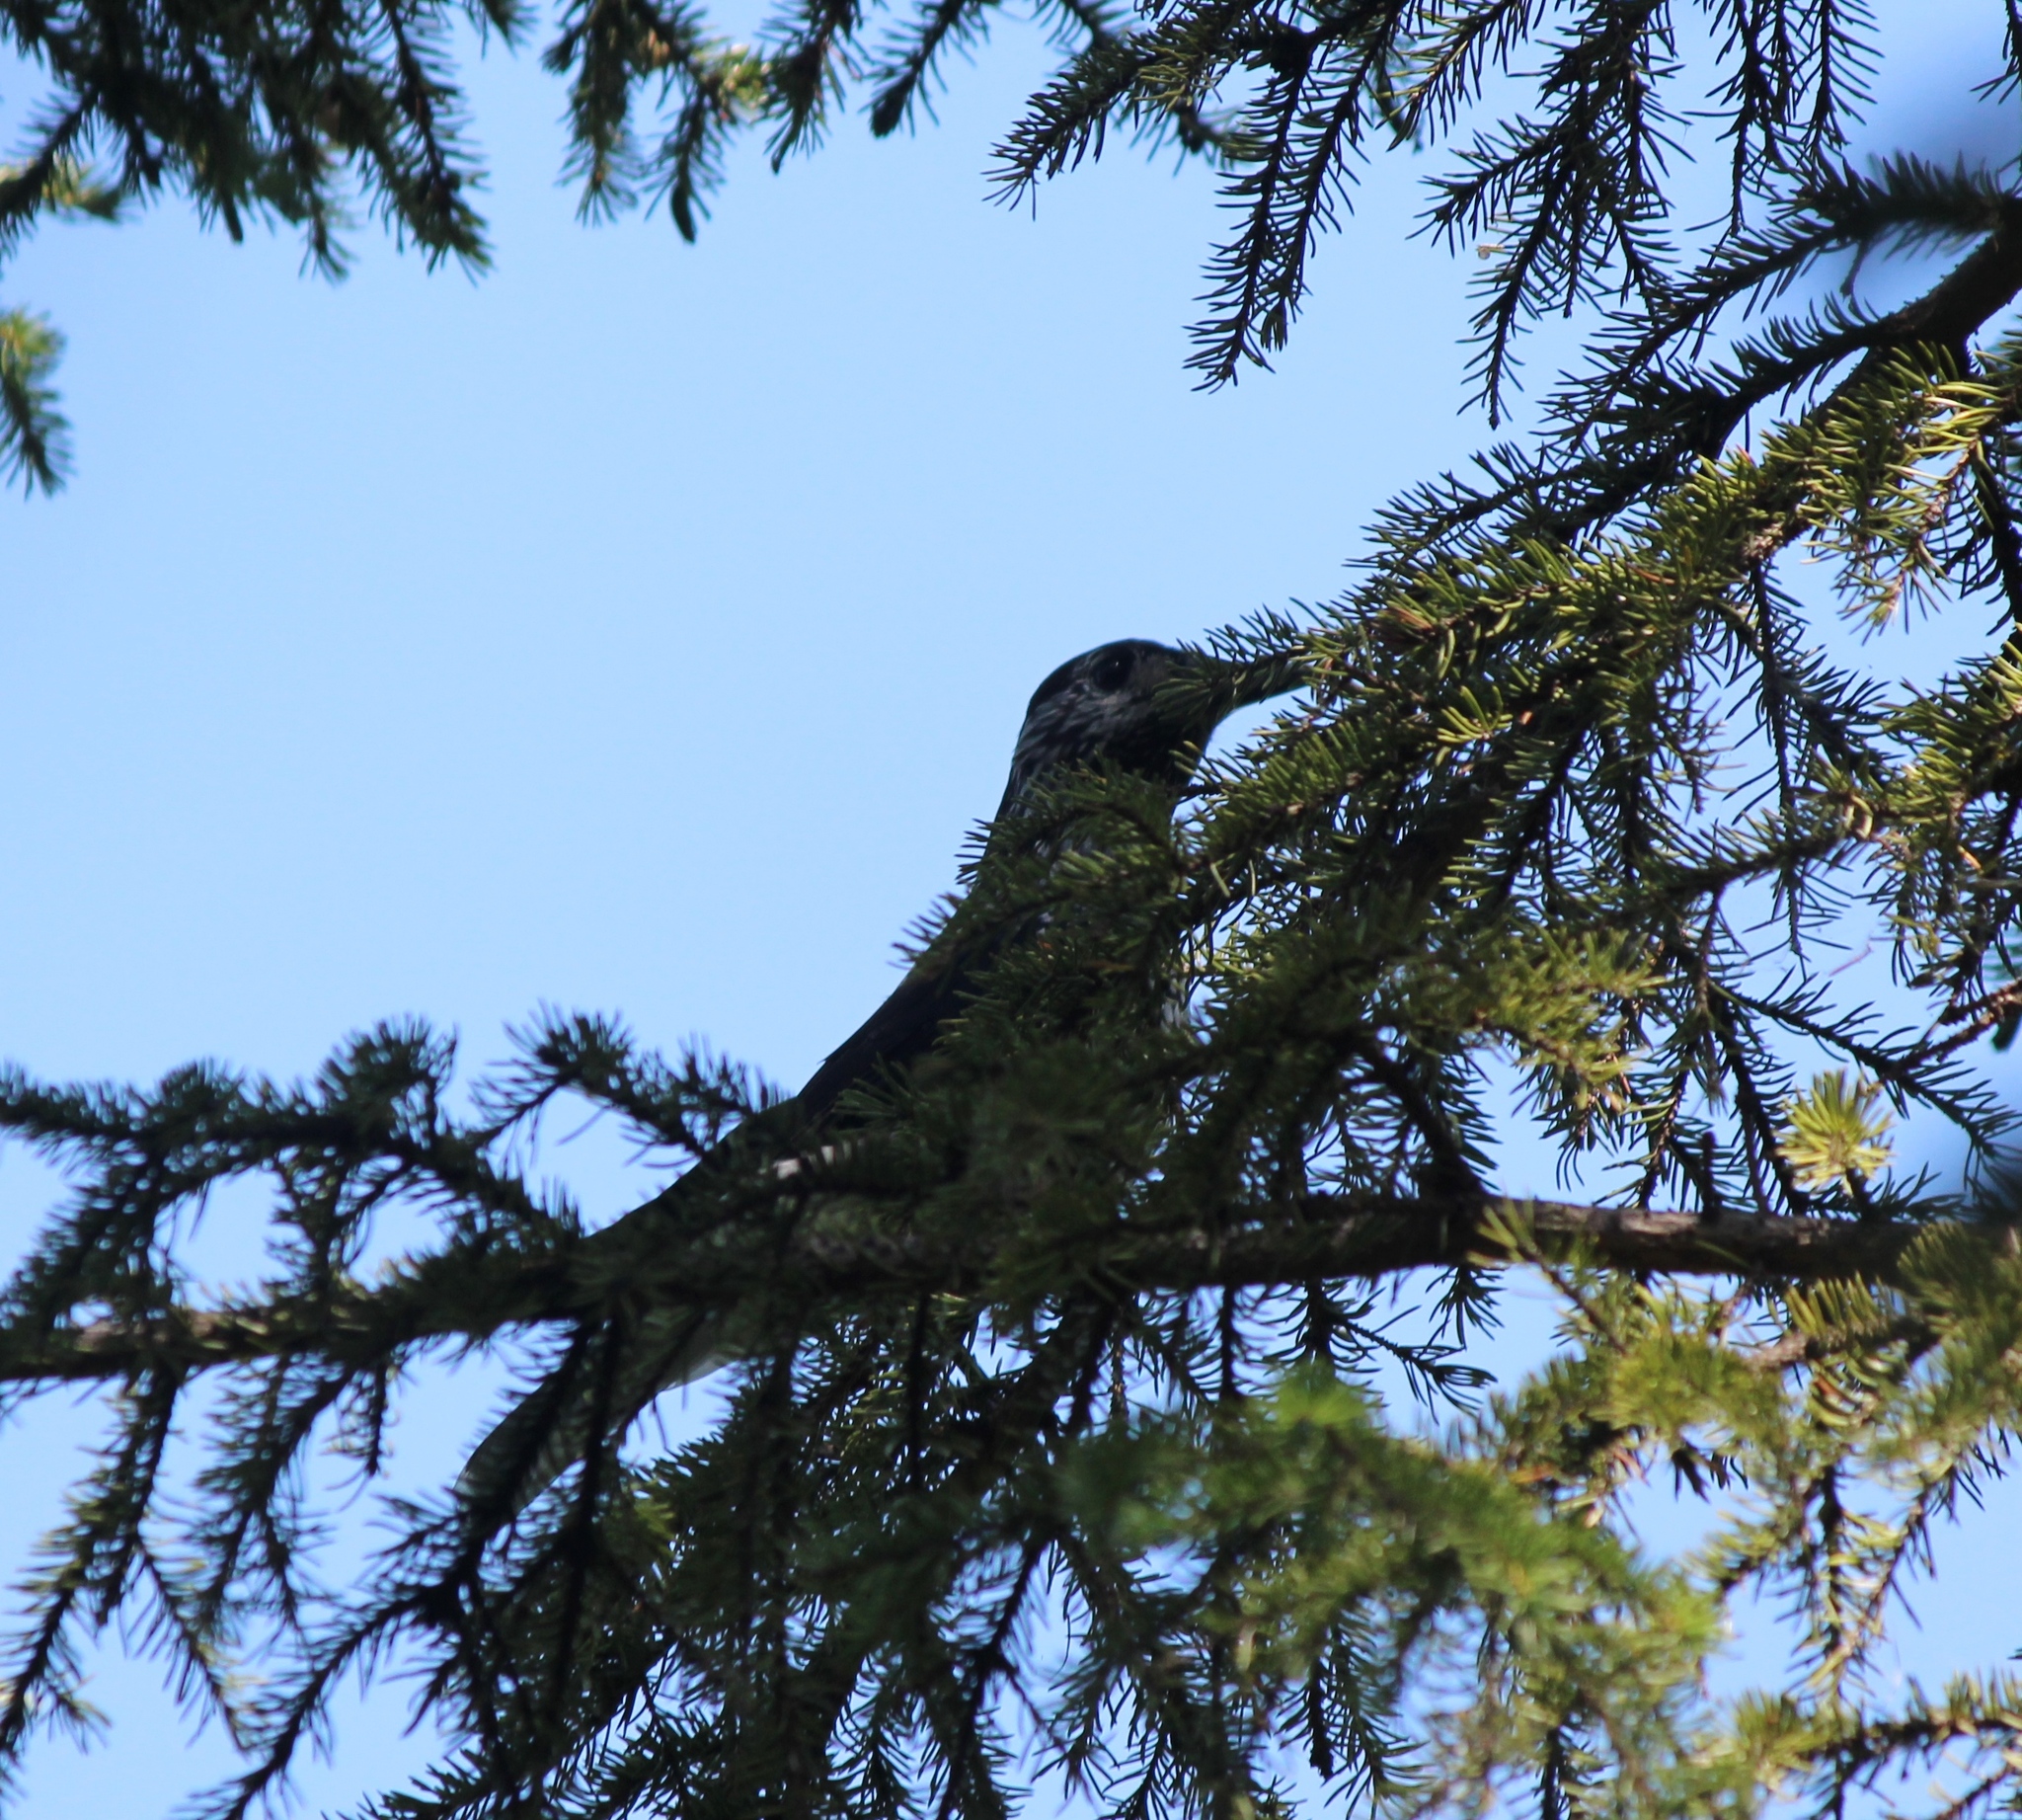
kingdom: Animalia
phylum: Chordata
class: Aves
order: Passeriformes
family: Corvidae
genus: Nucifraga
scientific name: Nucifraga caryocatactes
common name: Spotted nutcracker
